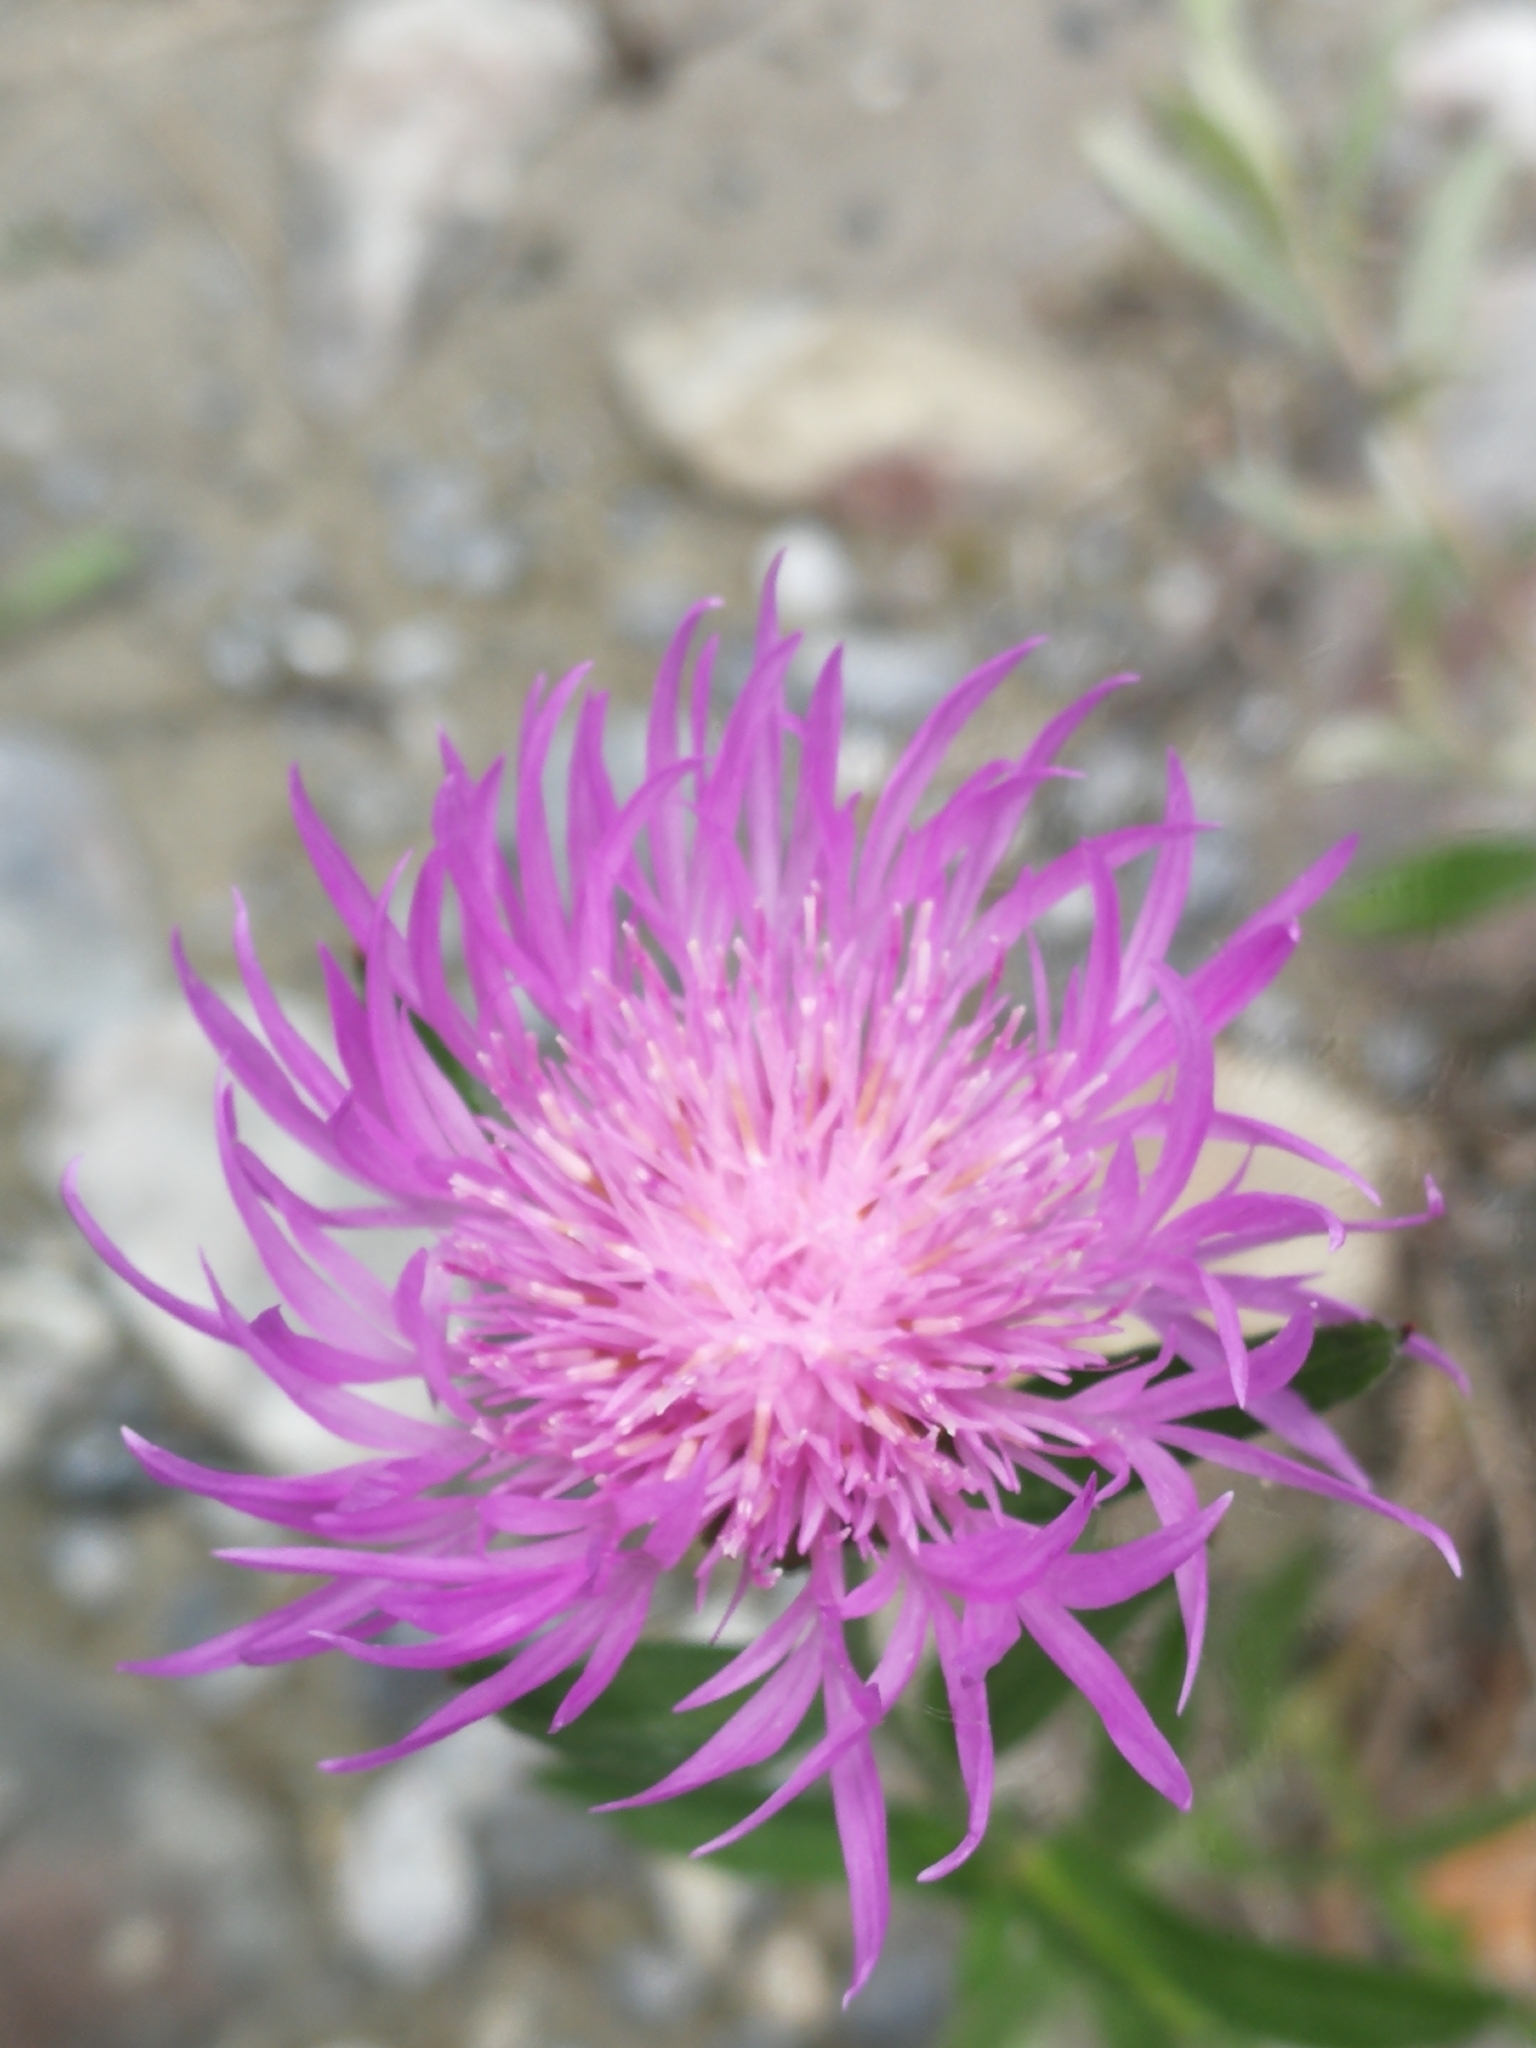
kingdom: Plantae
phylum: Tracheophyta
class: Magnoliopsida
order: Asterales
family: Asteraceae
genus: Centaurea
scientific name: Centaurea jacea
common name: Brown knapweed
